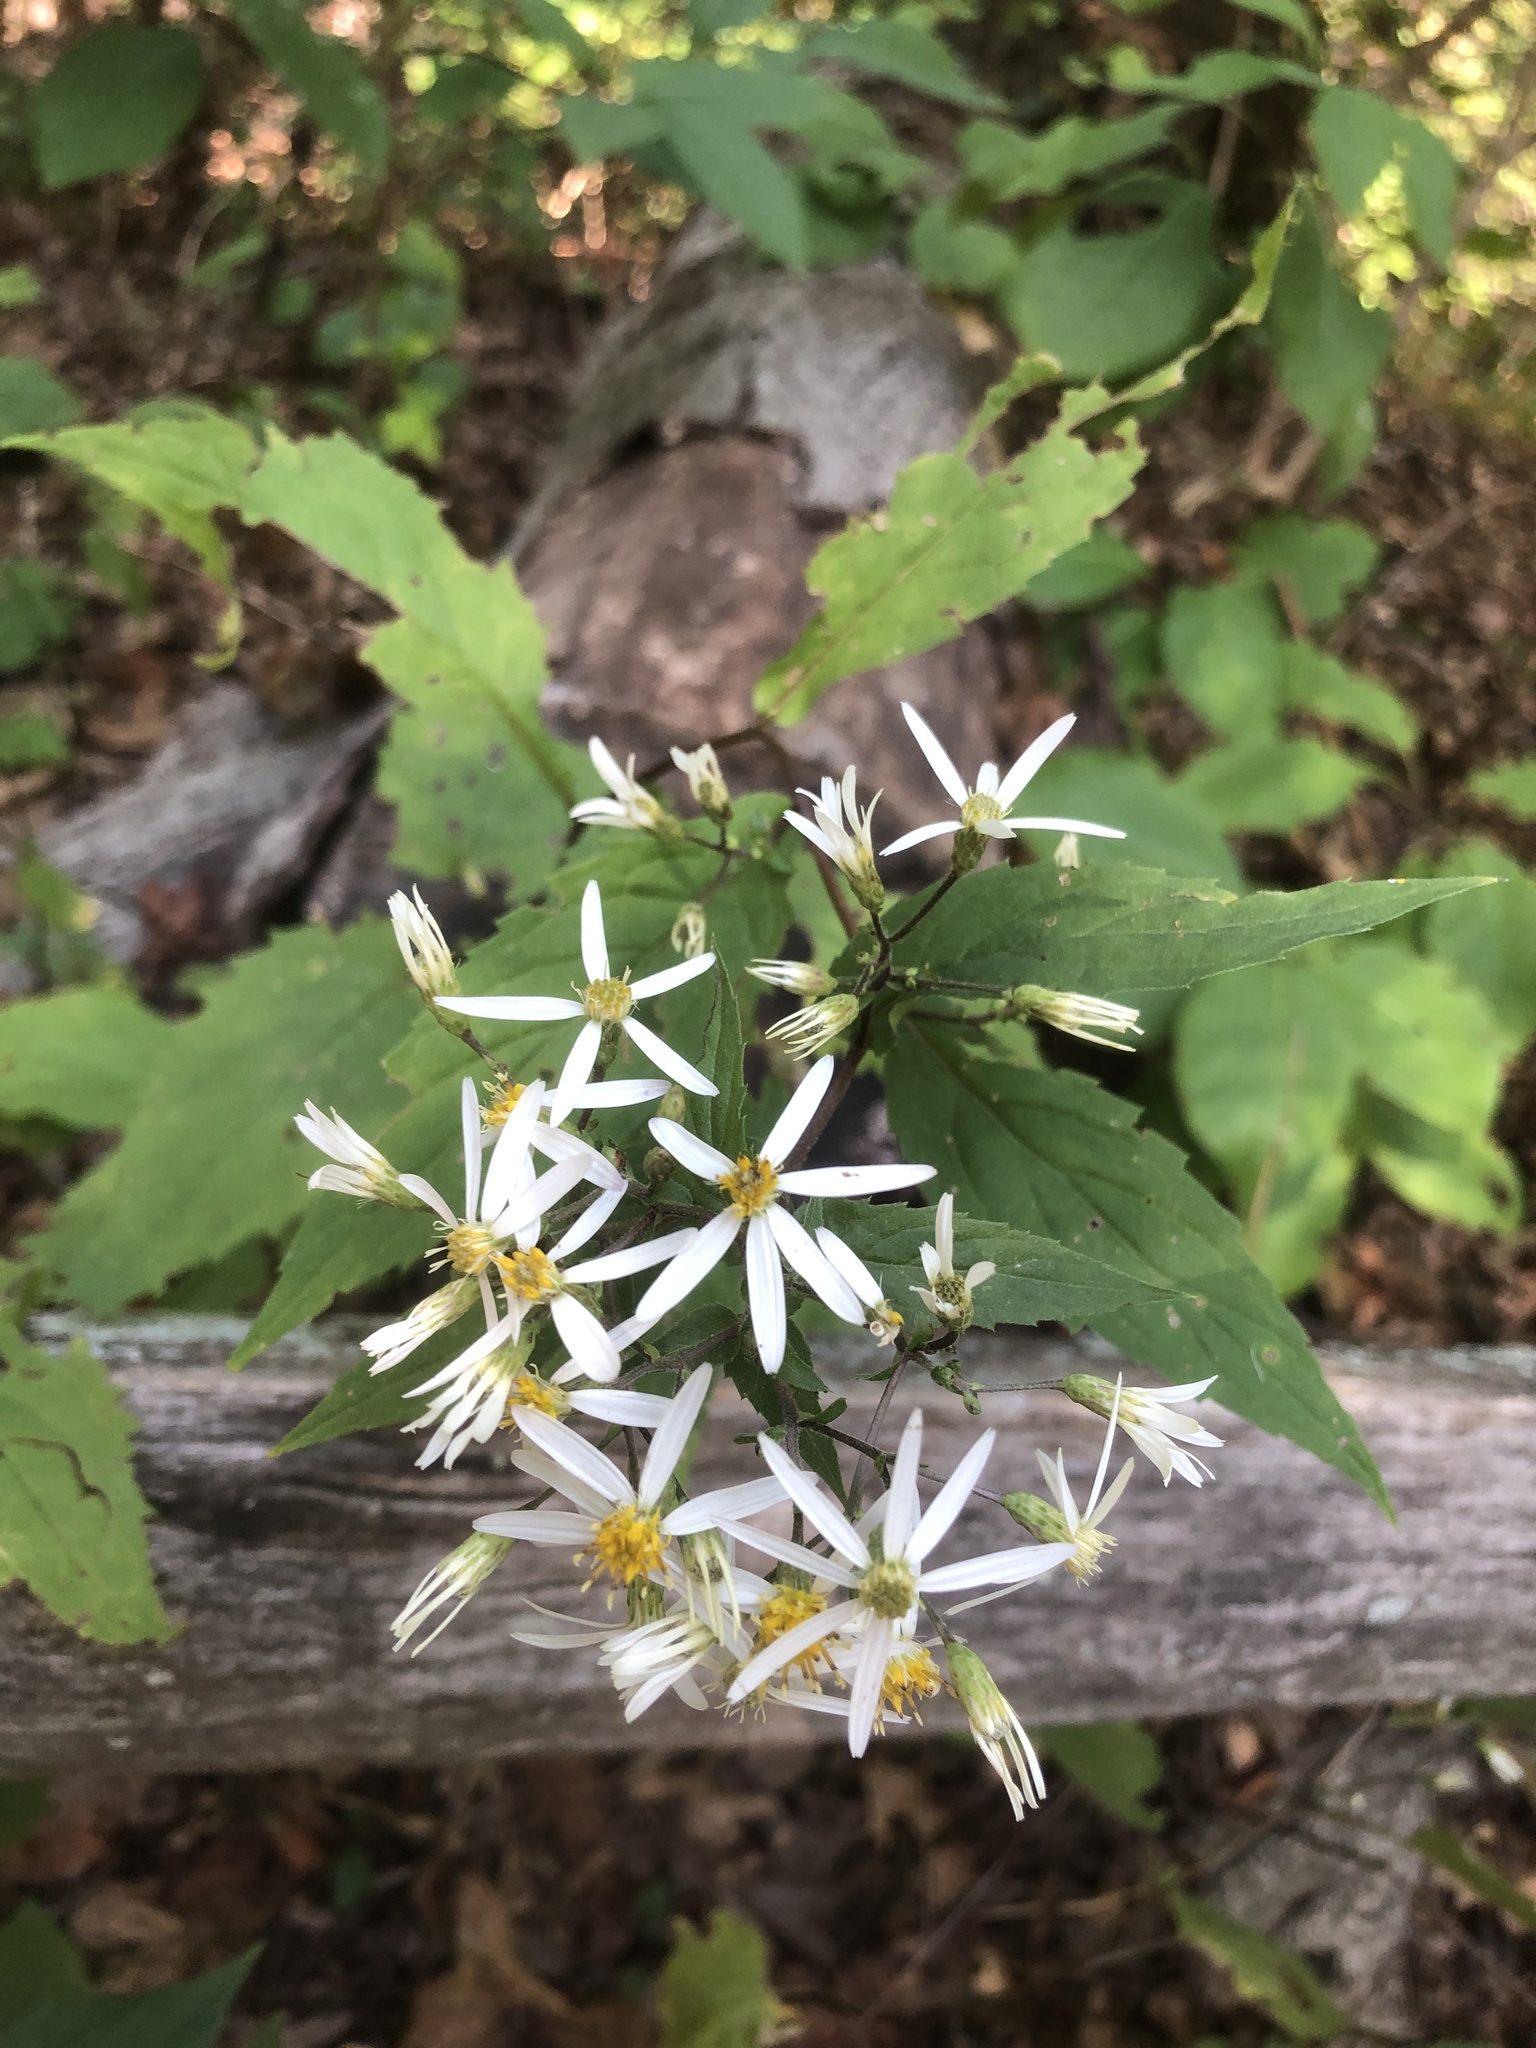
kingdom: Plantae
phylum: Tracheophyta
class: Magnoliopsida
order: Asterales
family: Asteraceae
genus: Eurybia
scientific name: Eurybia divaricata
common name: White wood aster
